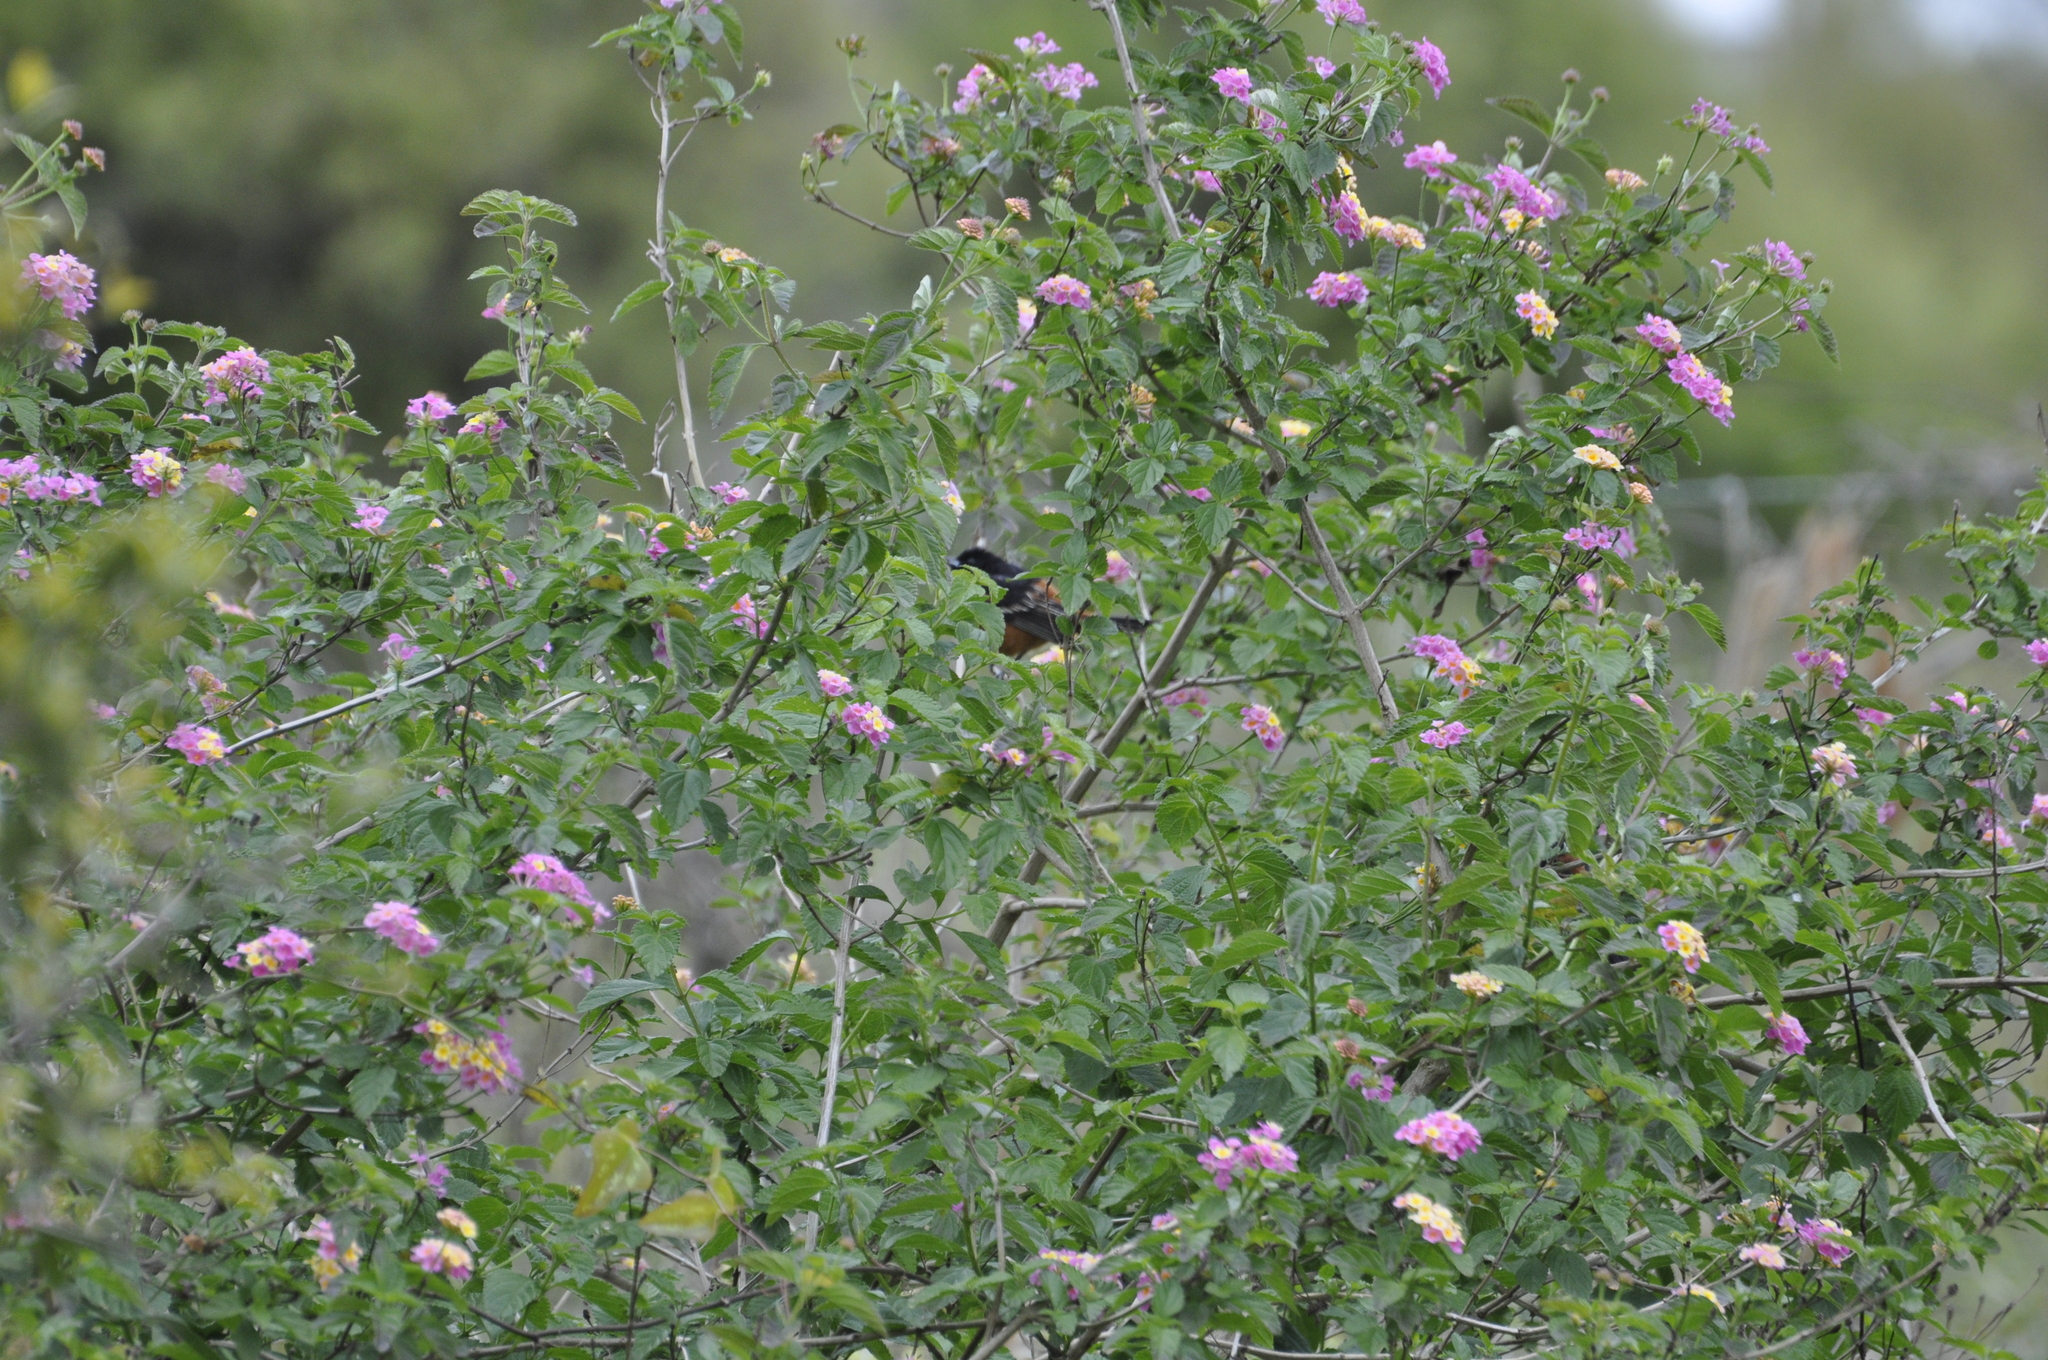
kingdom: Animalia
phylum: Chordata
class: Aves
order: Passeriformes
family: Icteridae
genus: Icterus
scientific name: Icterus spurius
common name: Orchard oriole
